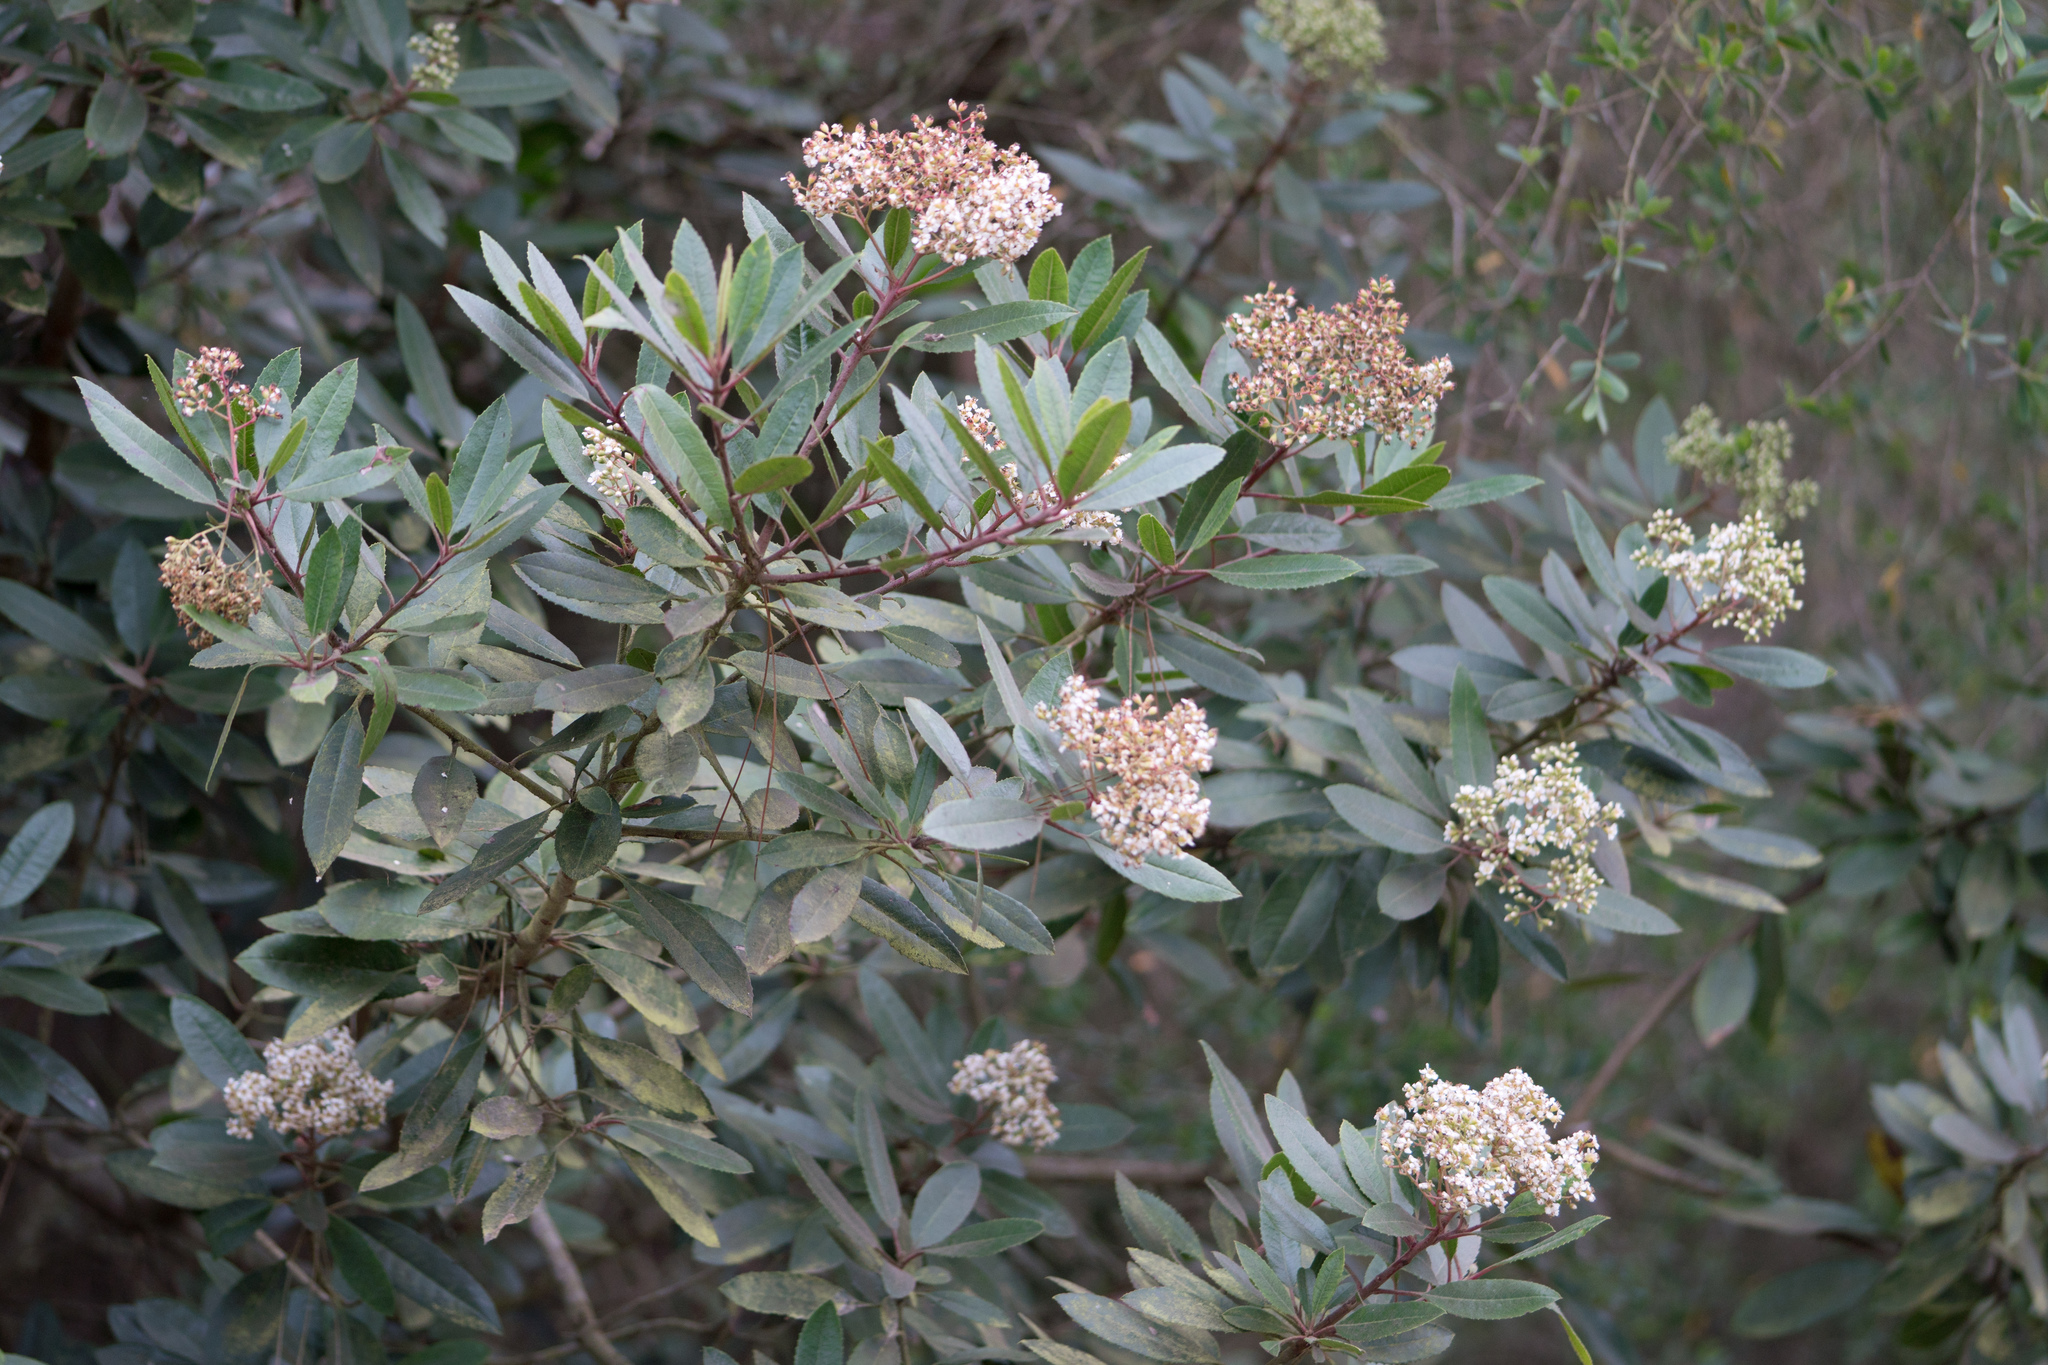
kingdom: Plantae
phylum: Tracheophyta
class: Magnoliopsida
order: Rosales
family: Rosaceae
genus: Heteromeles
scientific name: Heteromeles arbutifolia
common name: California-holly
